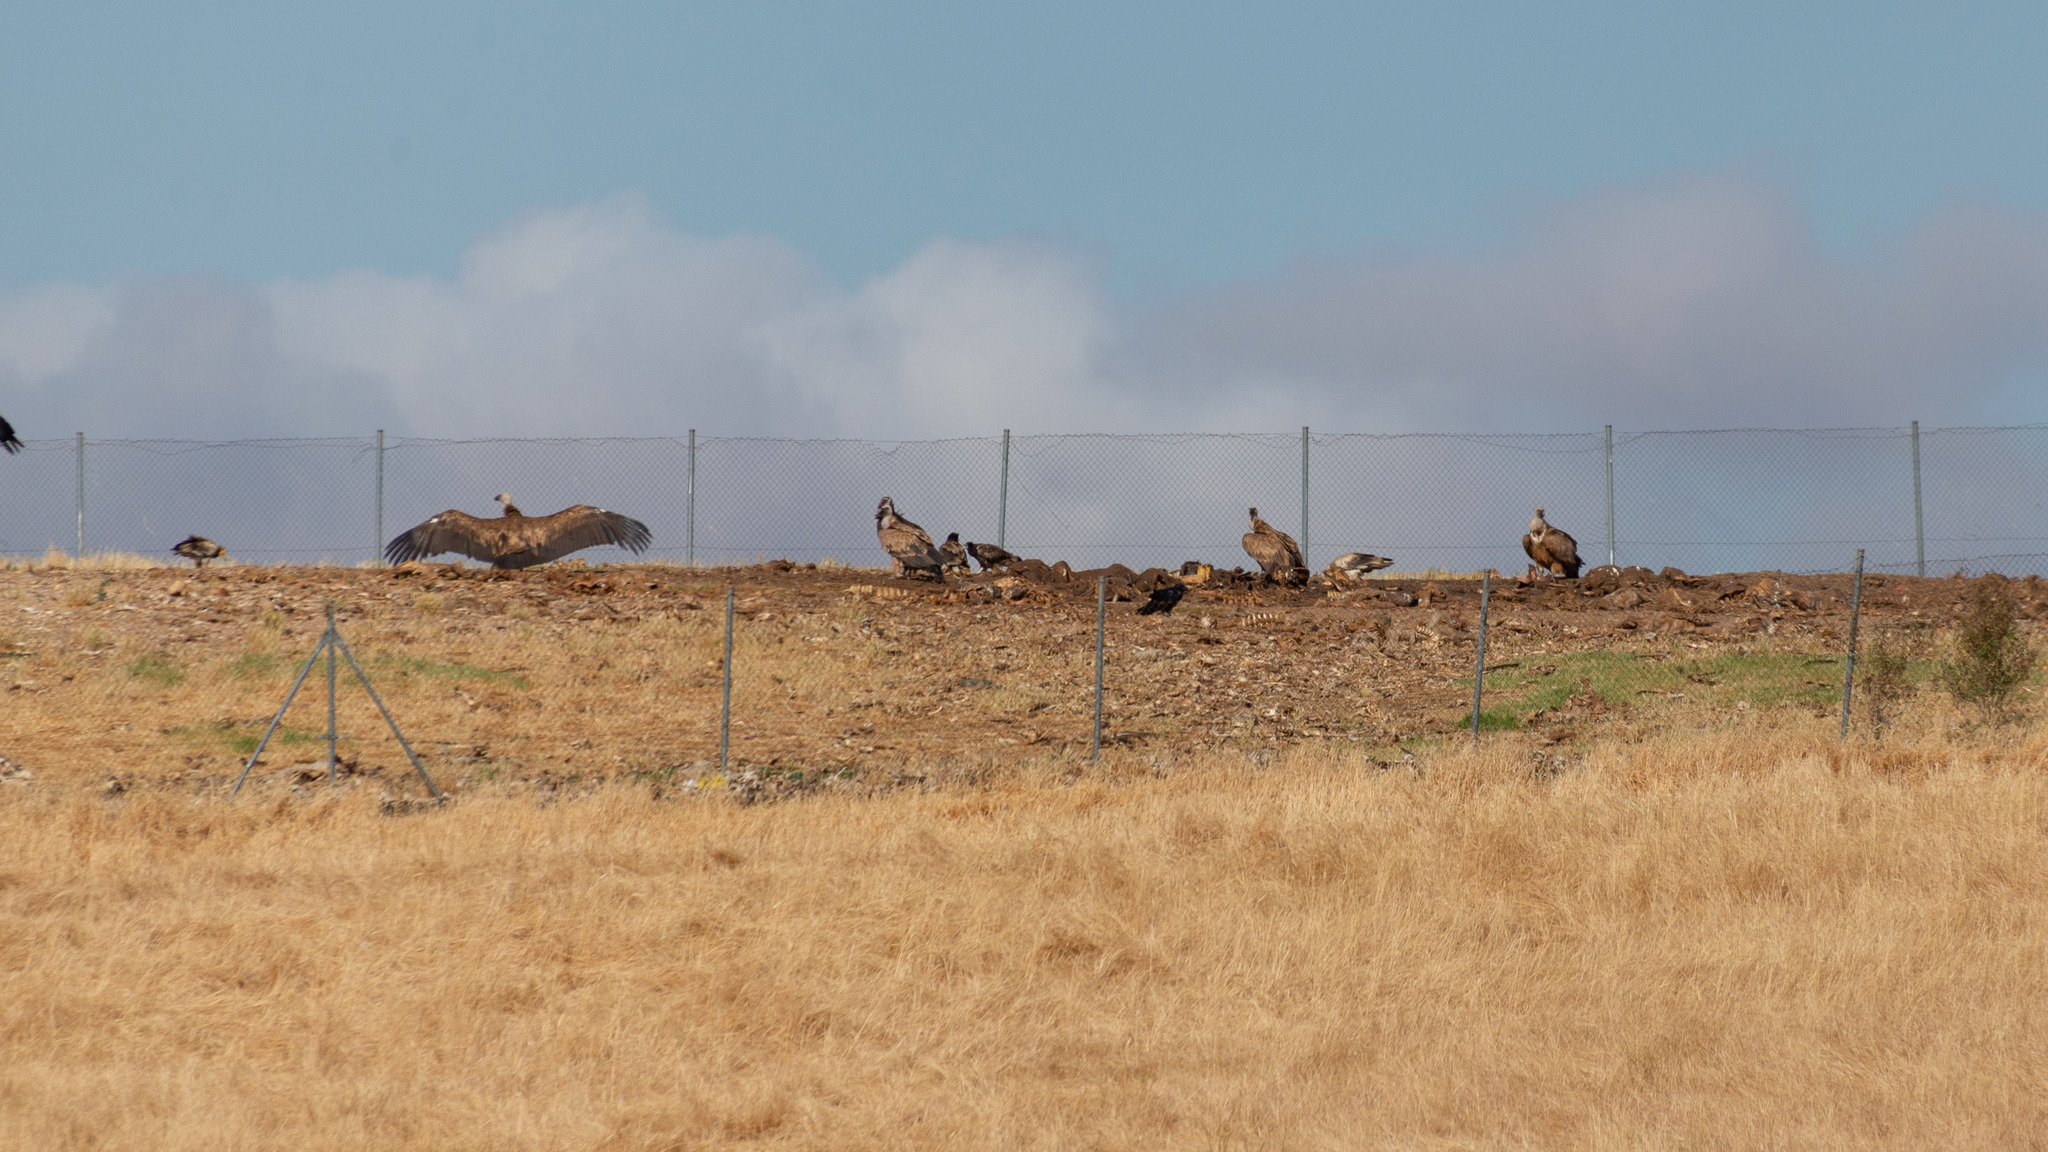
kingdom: Animalia
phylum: Chordata
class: Aves
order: Accipitriformes
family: Accipitridae
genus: Gyps
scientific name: Gyps fulvus
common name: Griffon vulture
